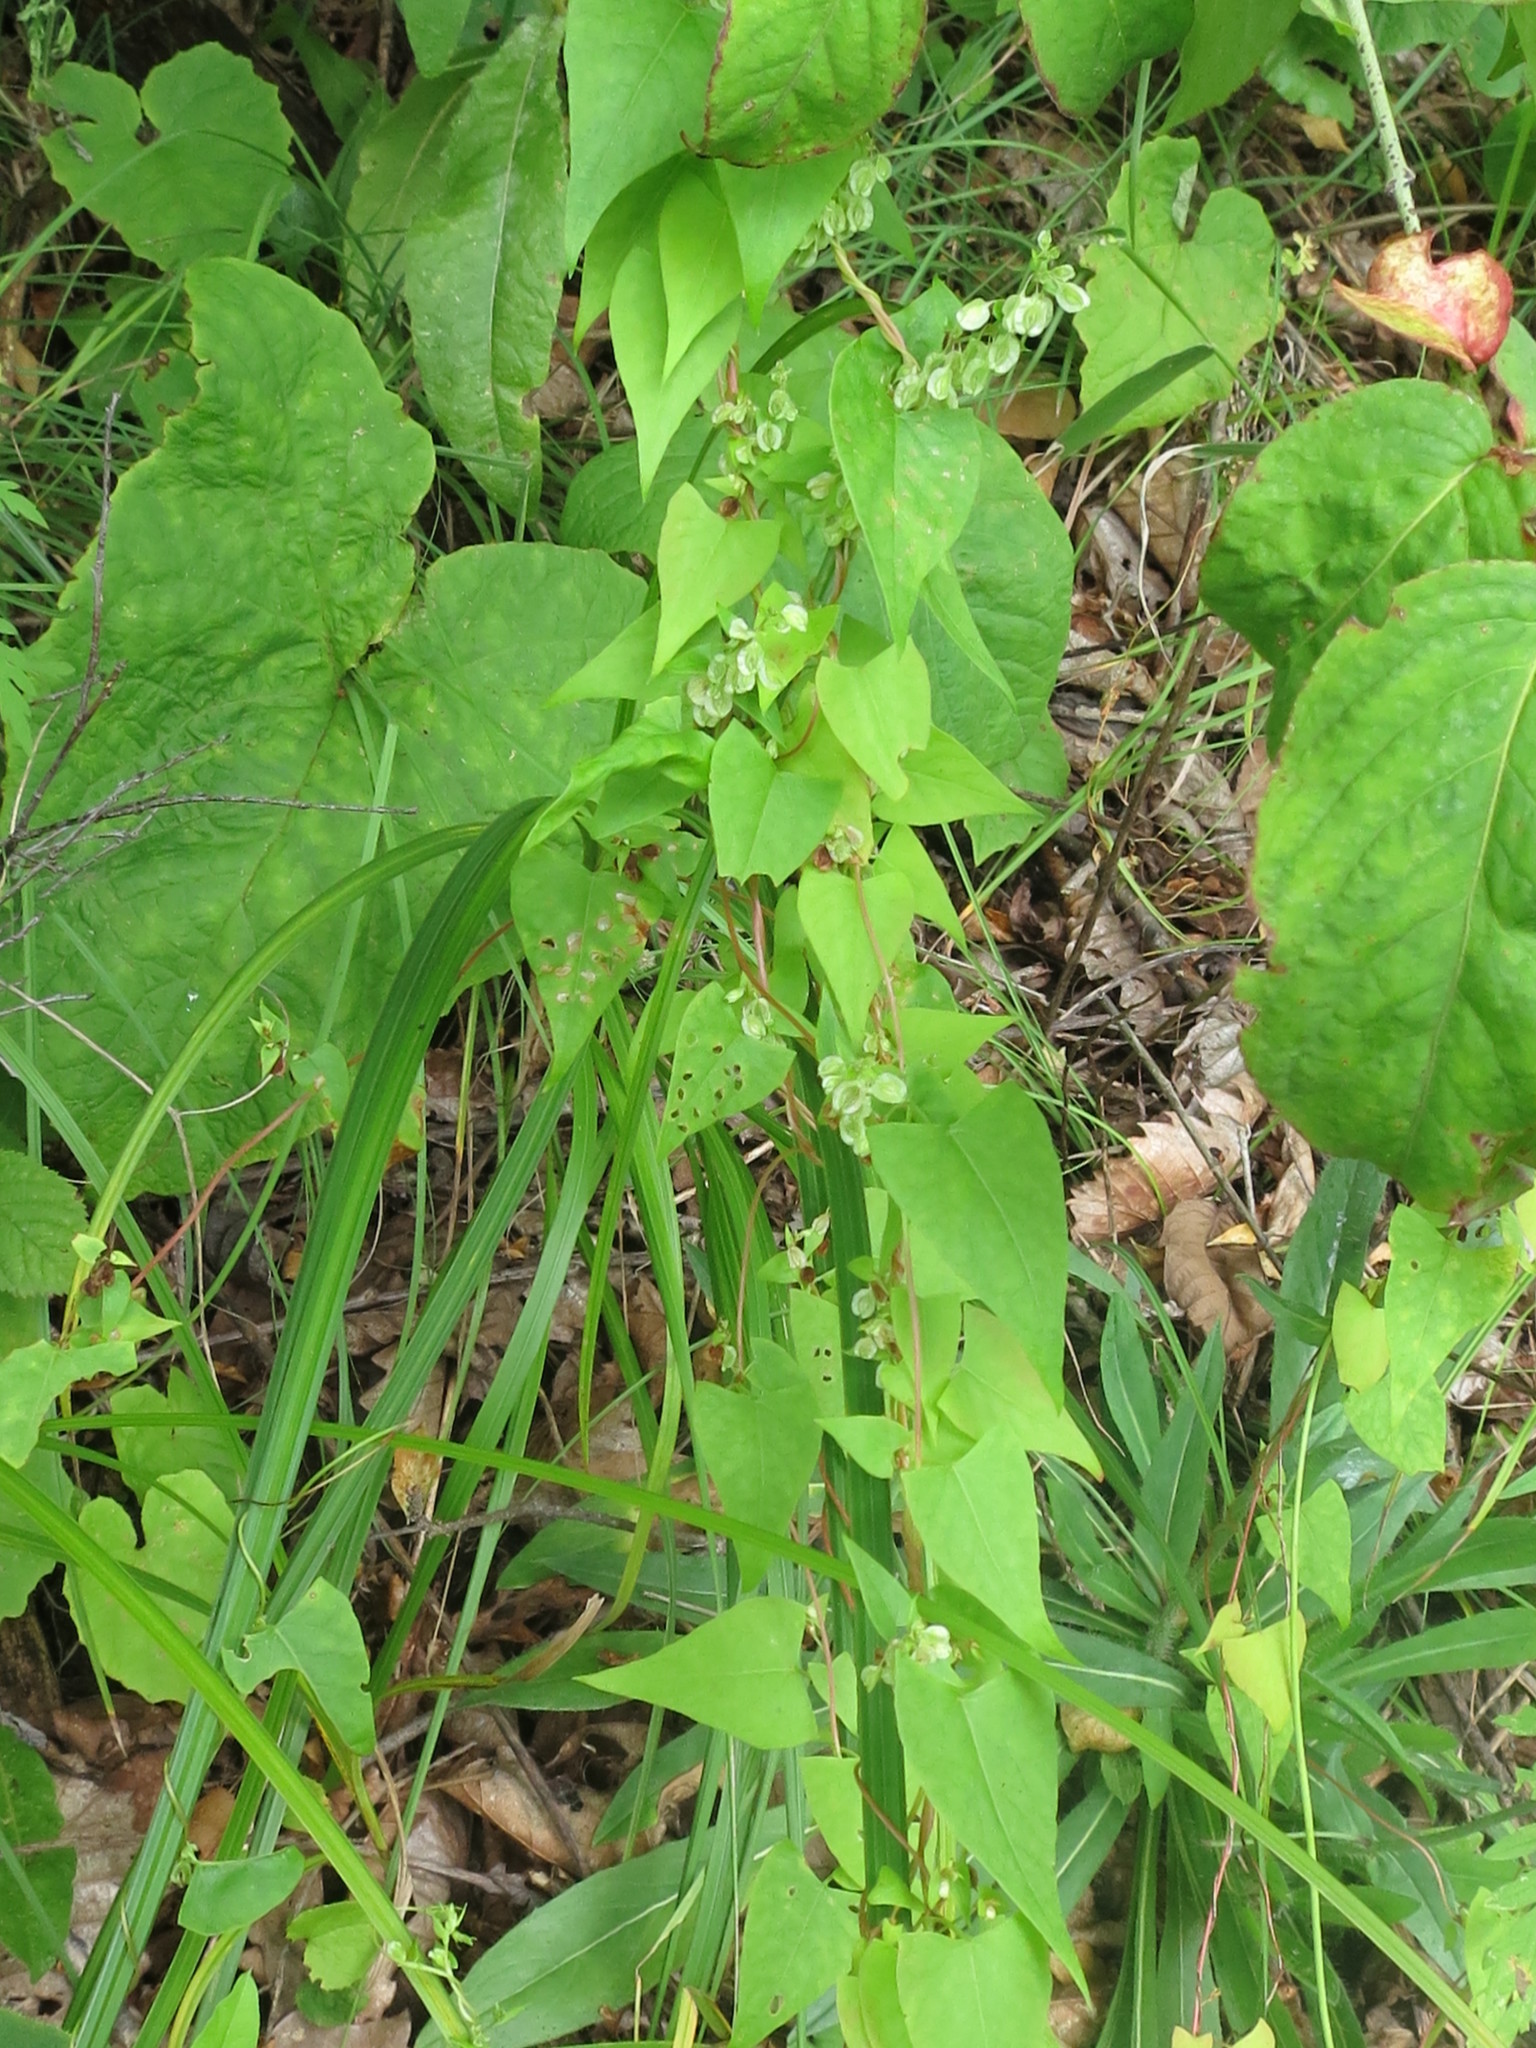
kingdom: Plantae
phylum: Tracheophyta
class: Magnoliopsida
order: Caryophyllales
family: Polygonaceae
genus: Fallopia
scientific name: Fallopia dumetorum
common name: Copse-bindweed
